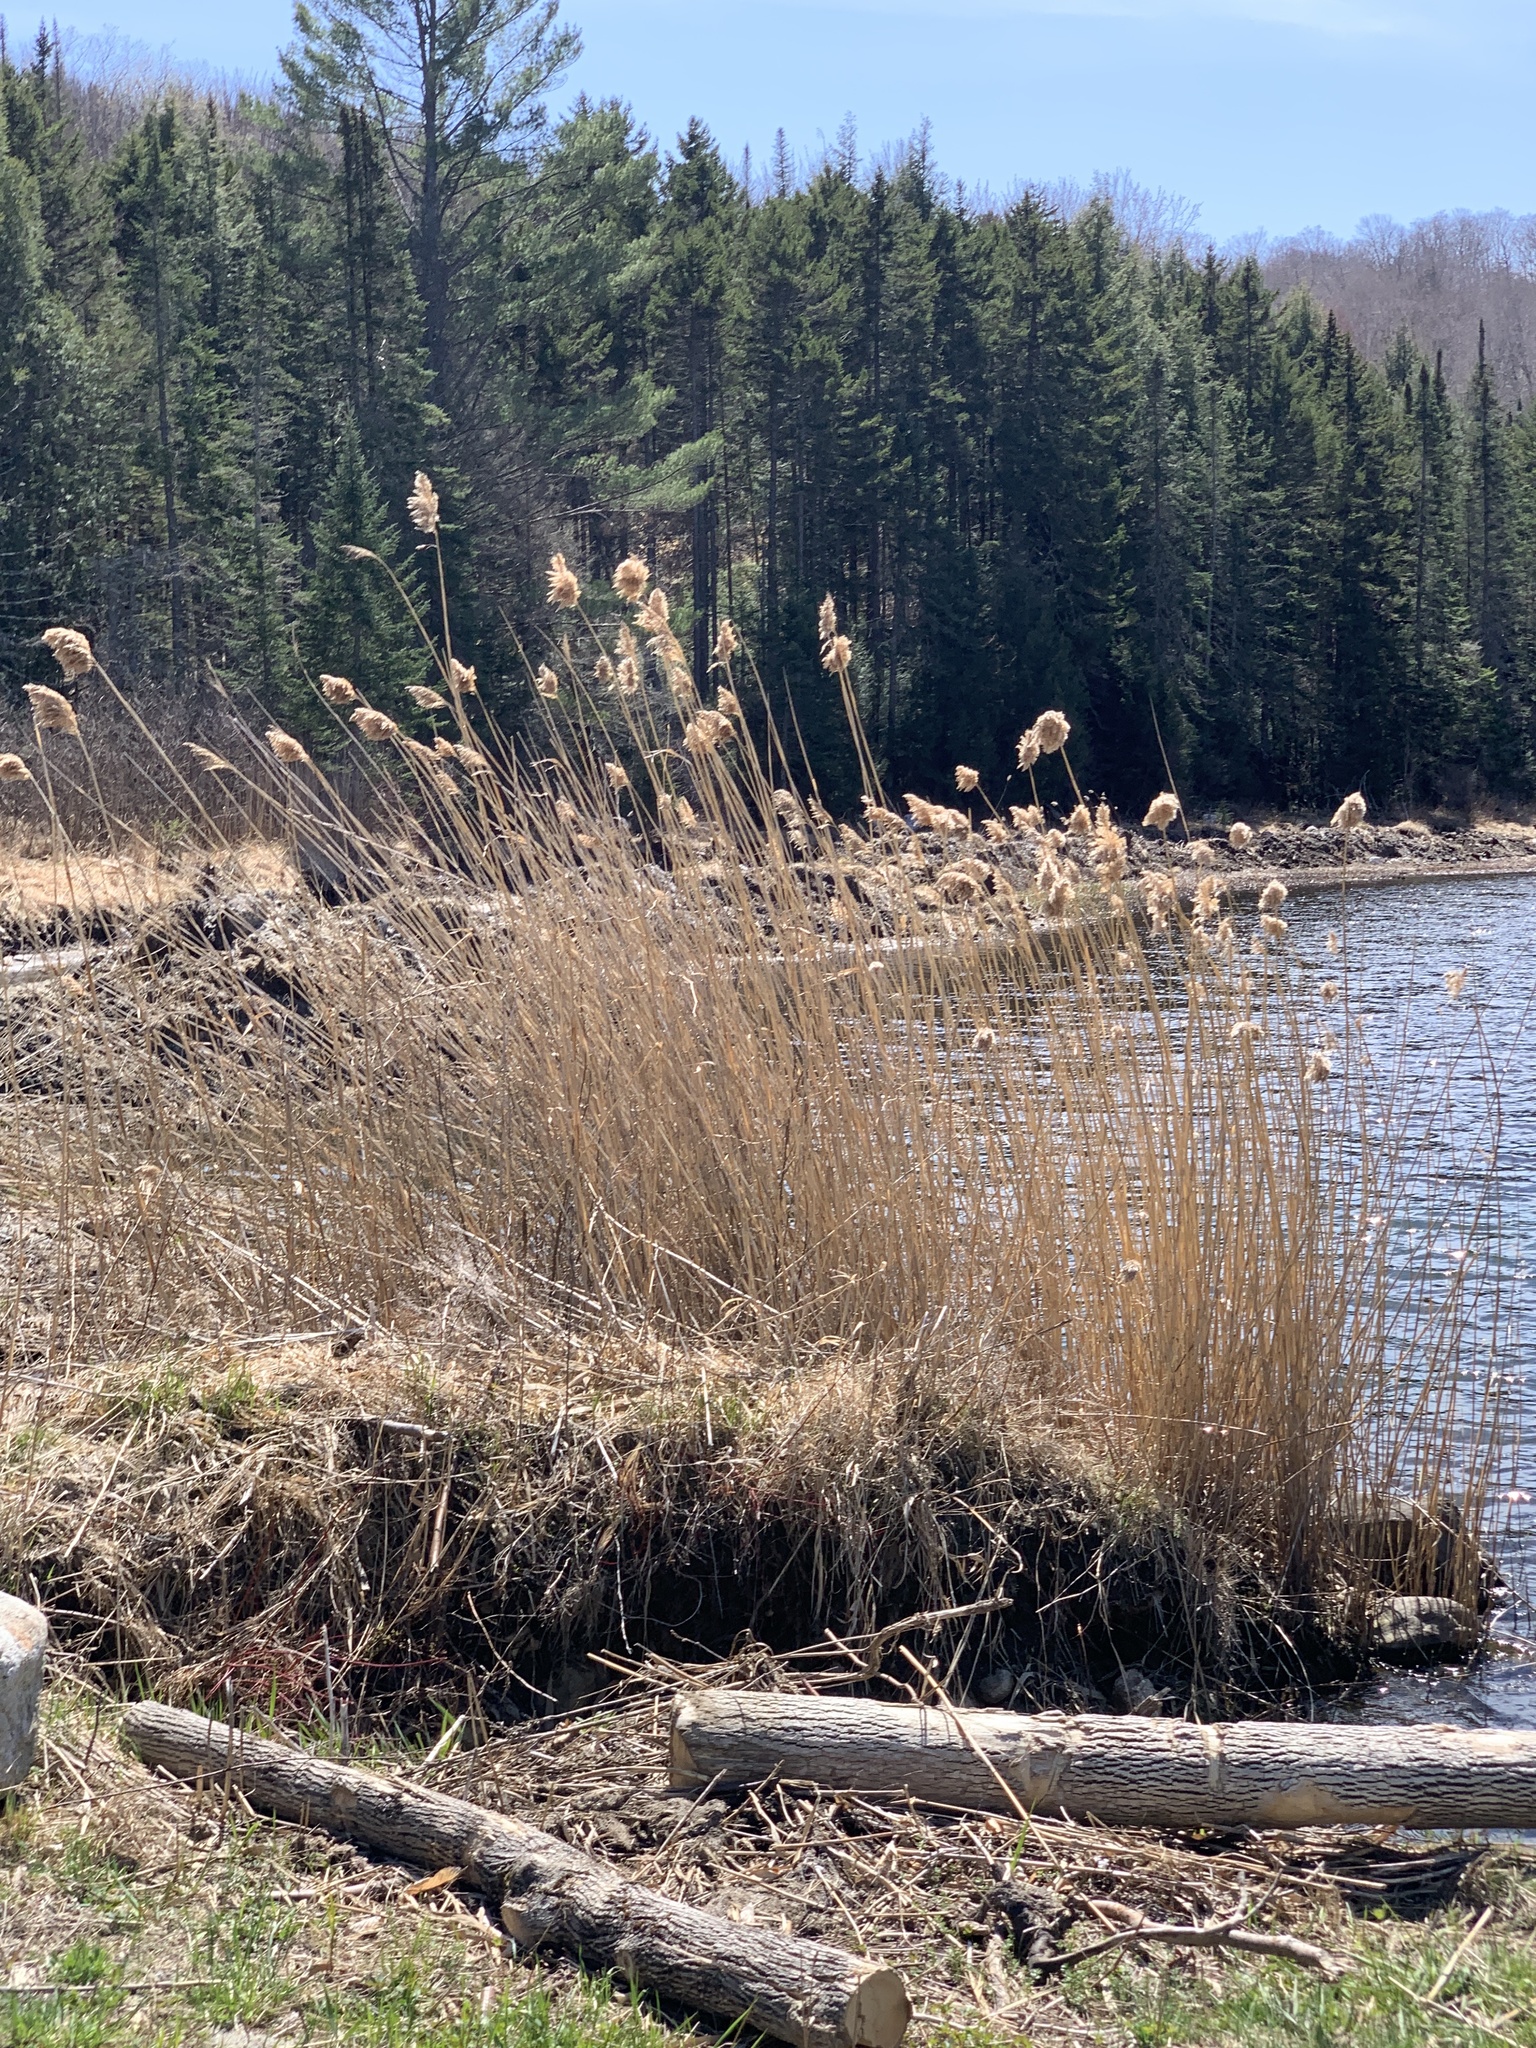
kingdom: Plantae
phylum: Tracheophyta
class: Liliopsida
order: Poales
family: Poaceae
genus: Phragmites
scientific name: Phragmites australis
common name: Common reed
